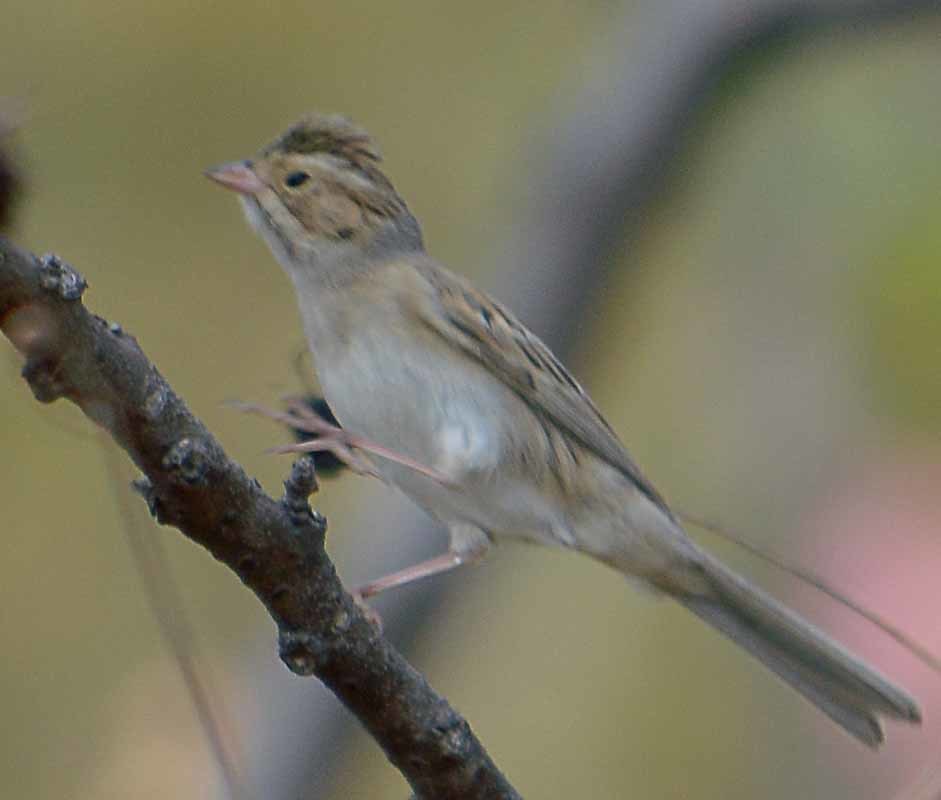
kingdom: Animalia
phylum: Chordata
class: Aves
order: Passeriformes
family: Passerellidae
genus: Spizella
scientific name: Spizella pallida
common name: Clay-colored sparrow
